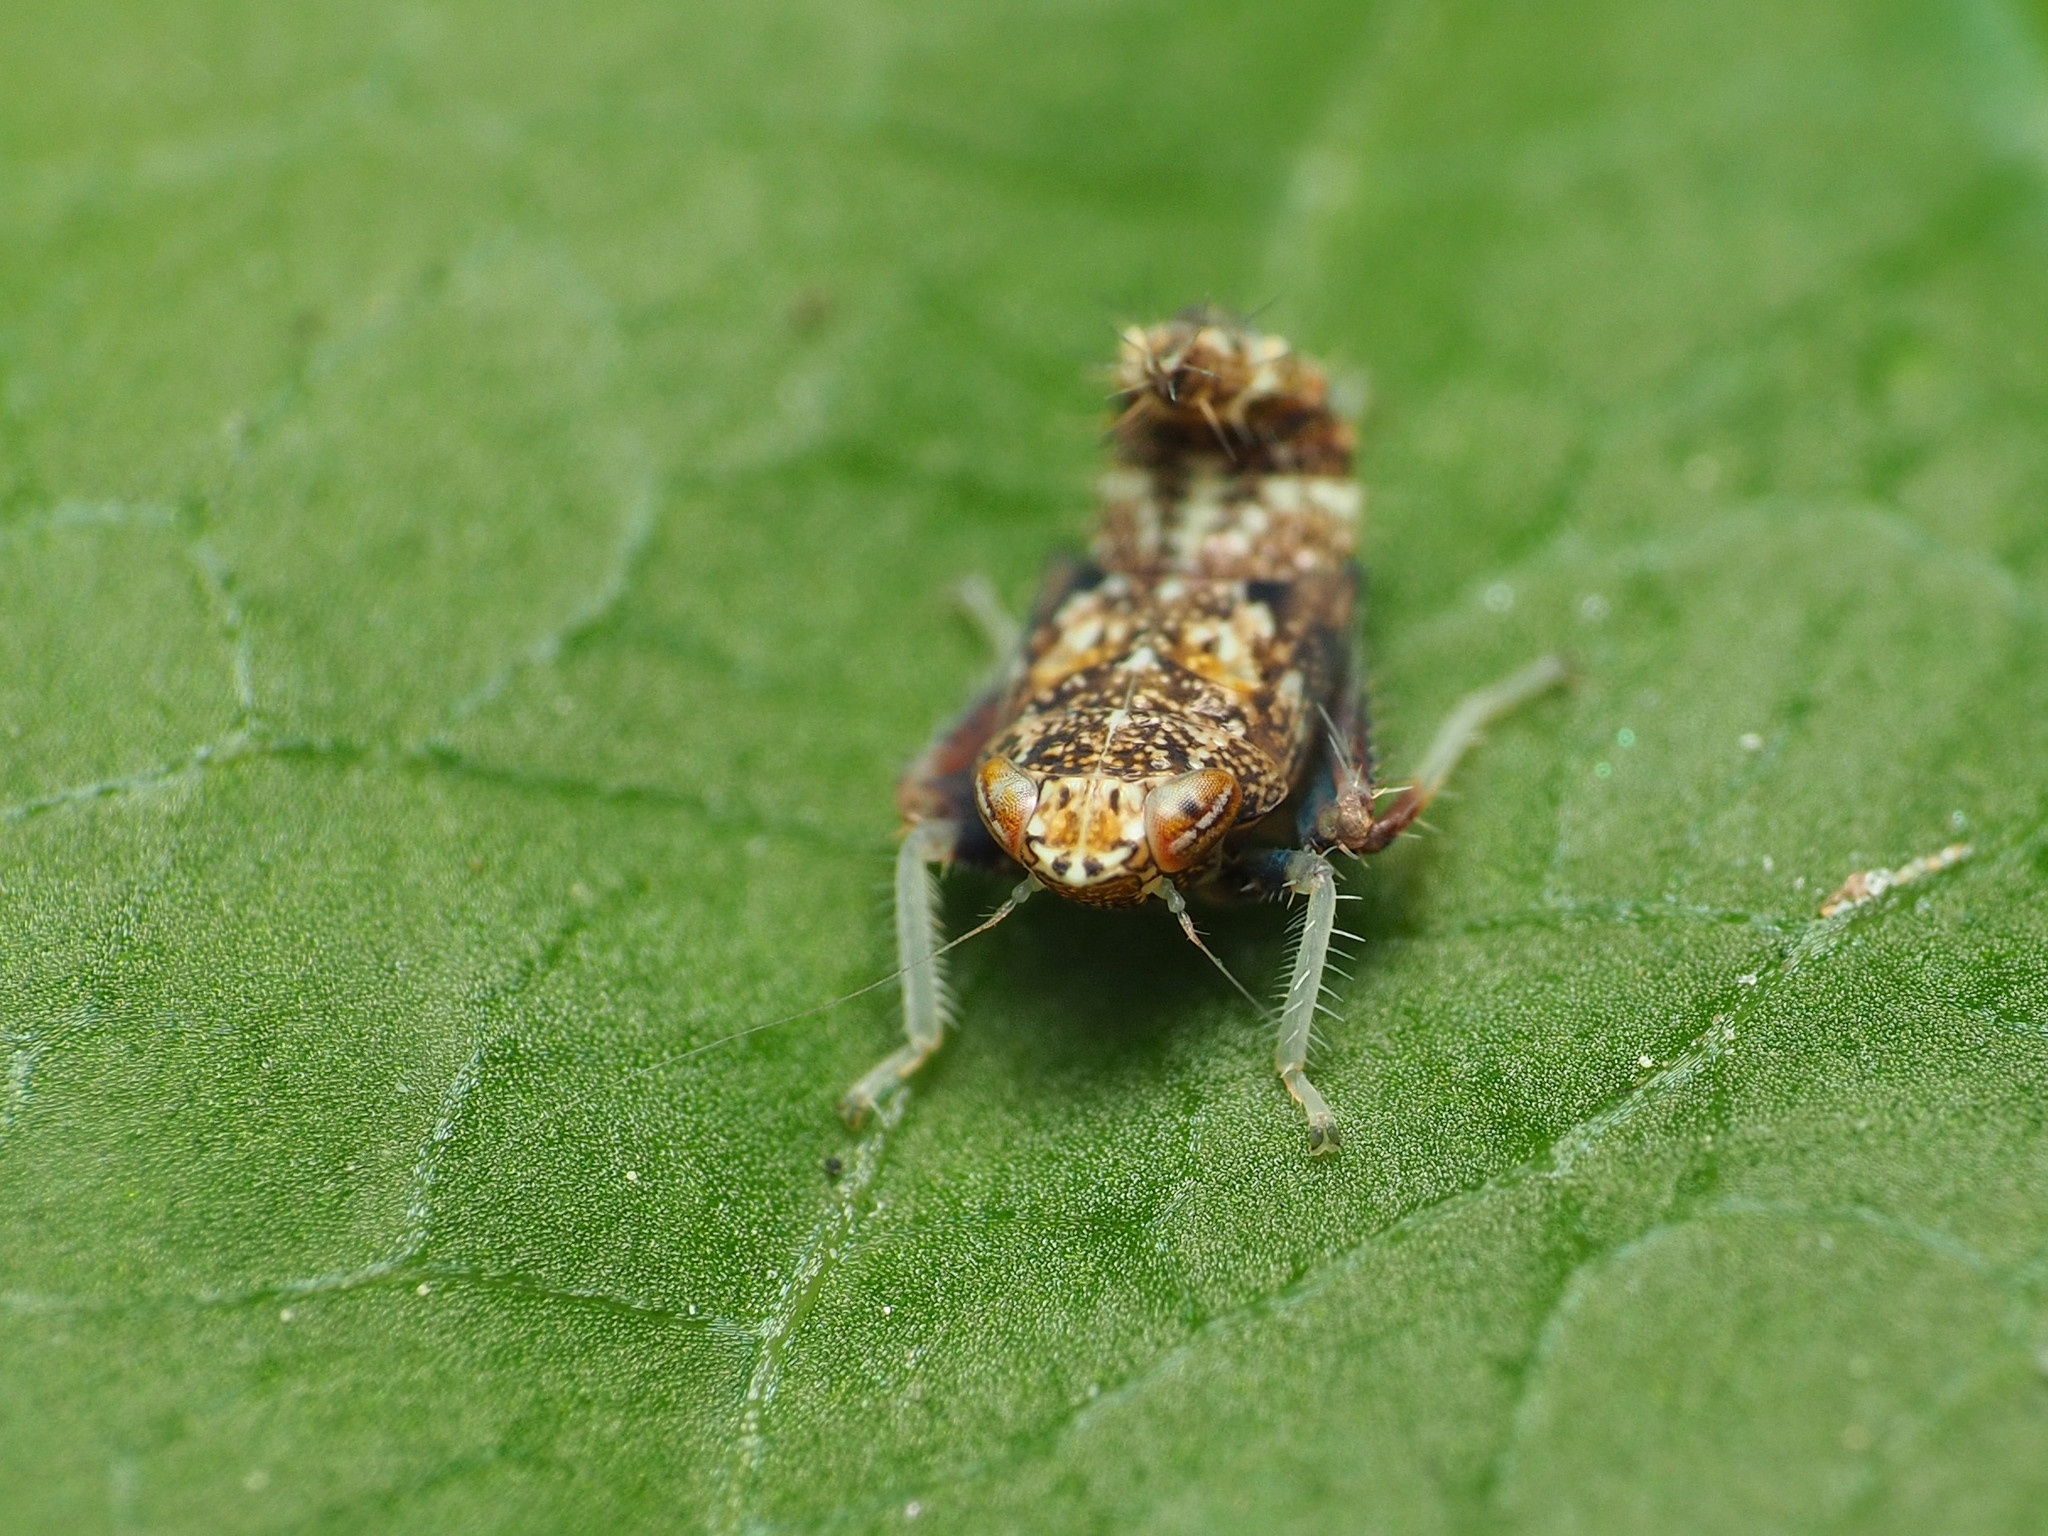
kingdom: Animalia
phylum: Arthropoda
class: Insecta
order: Hemiptera
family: Cicadellidae
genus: Orientus
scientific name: Orientus ishidae
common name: Japanese leafhopper
